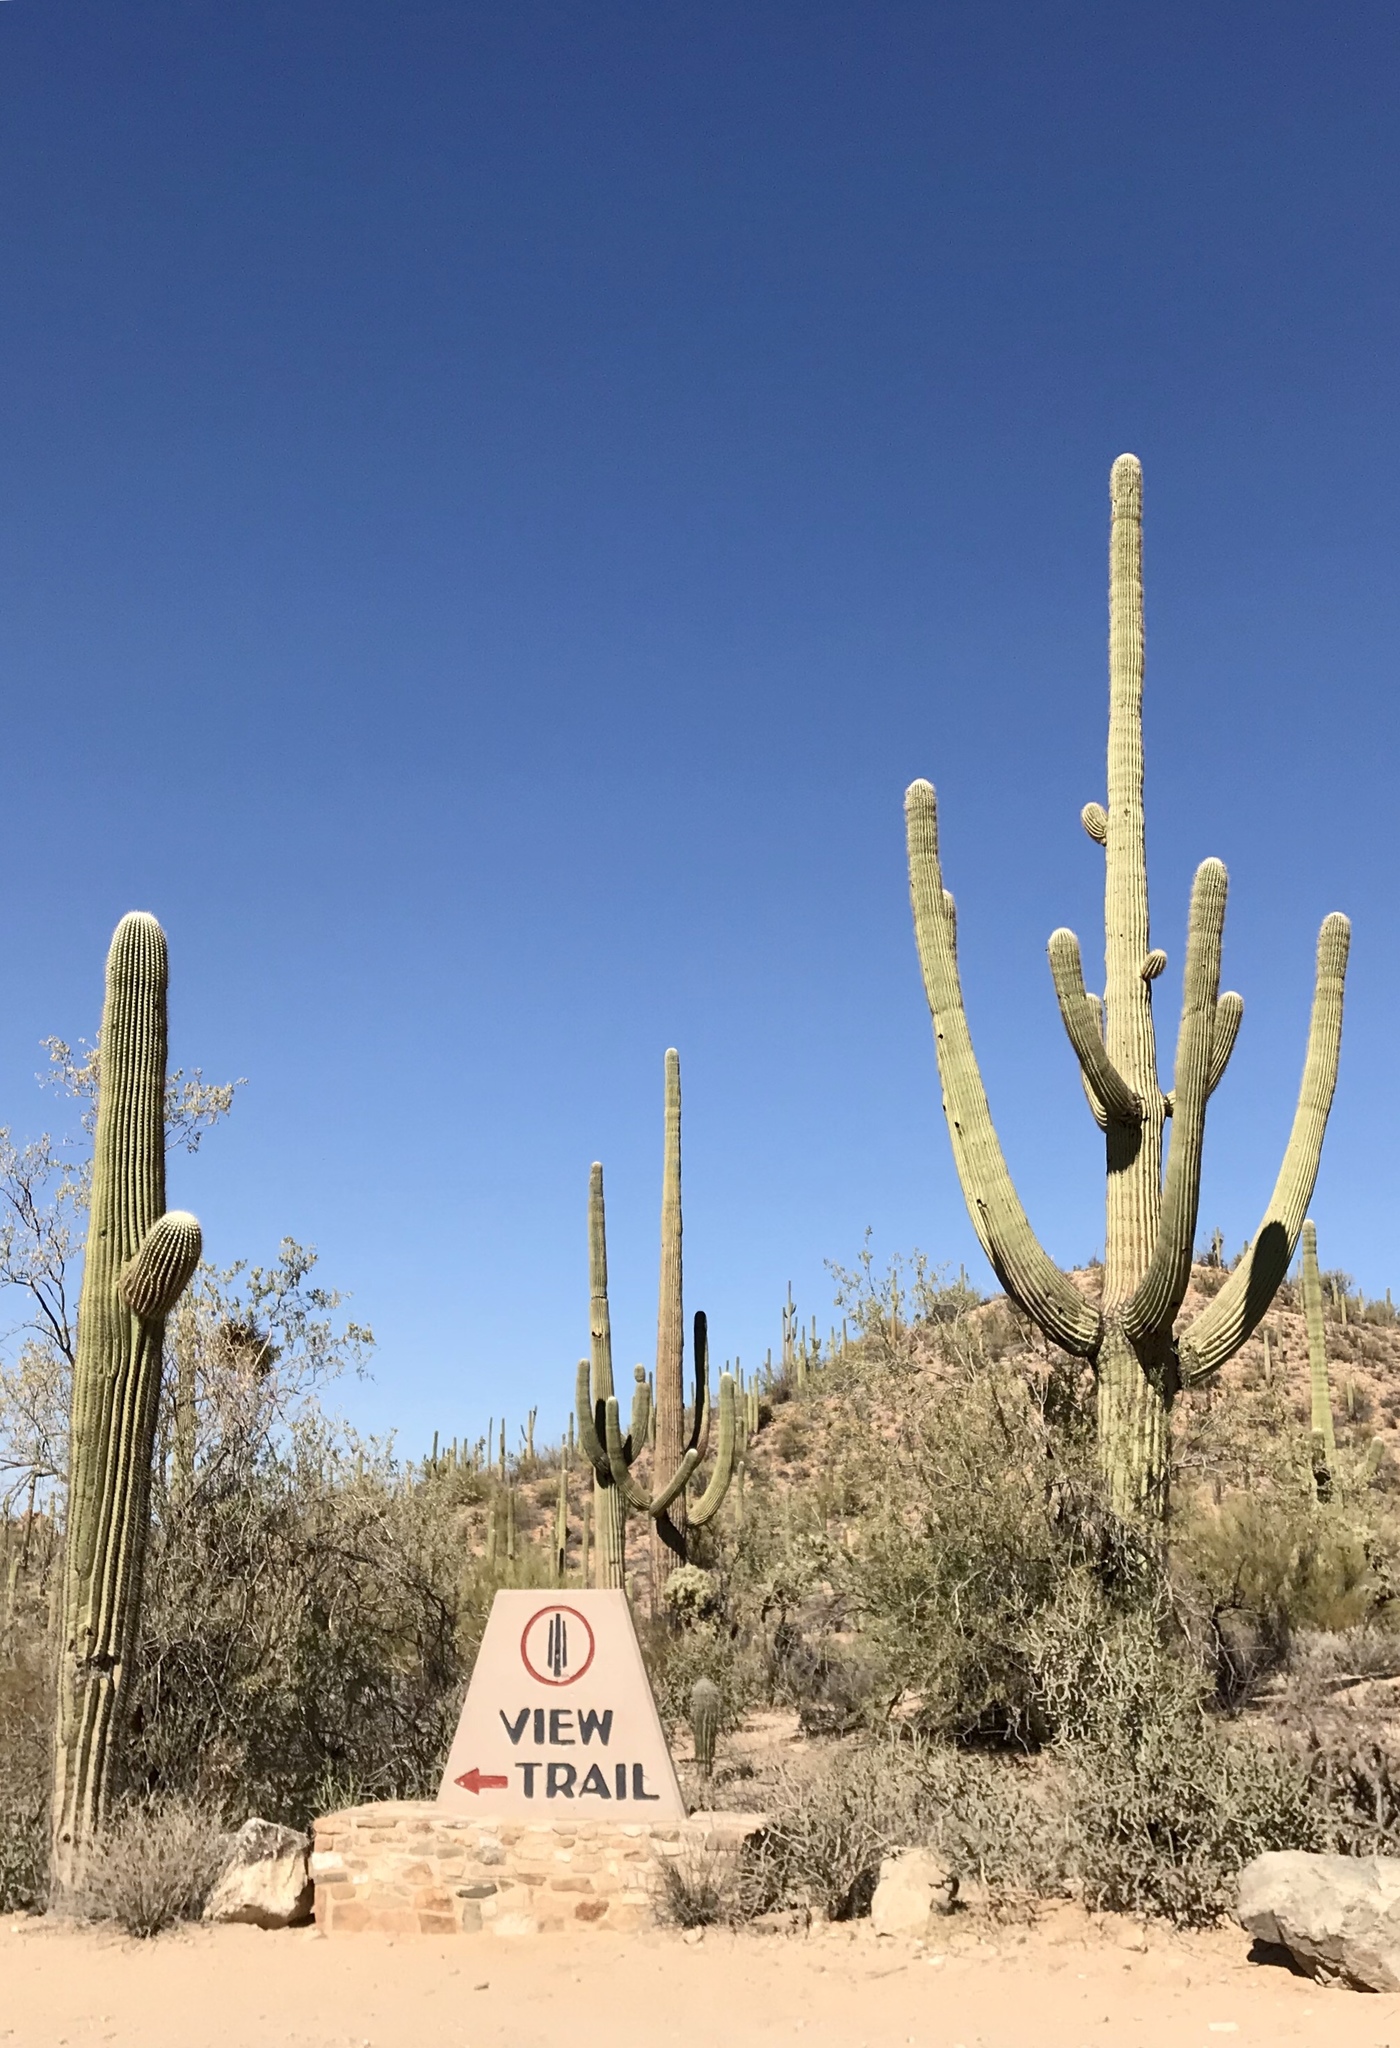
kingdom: Plantae
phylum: Tracheophyta
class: Magnoliopsida
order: Caryophyllales
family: Cactaceae
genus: Carnegiea
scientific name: Carnegiea gigantea
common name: Saguaro
